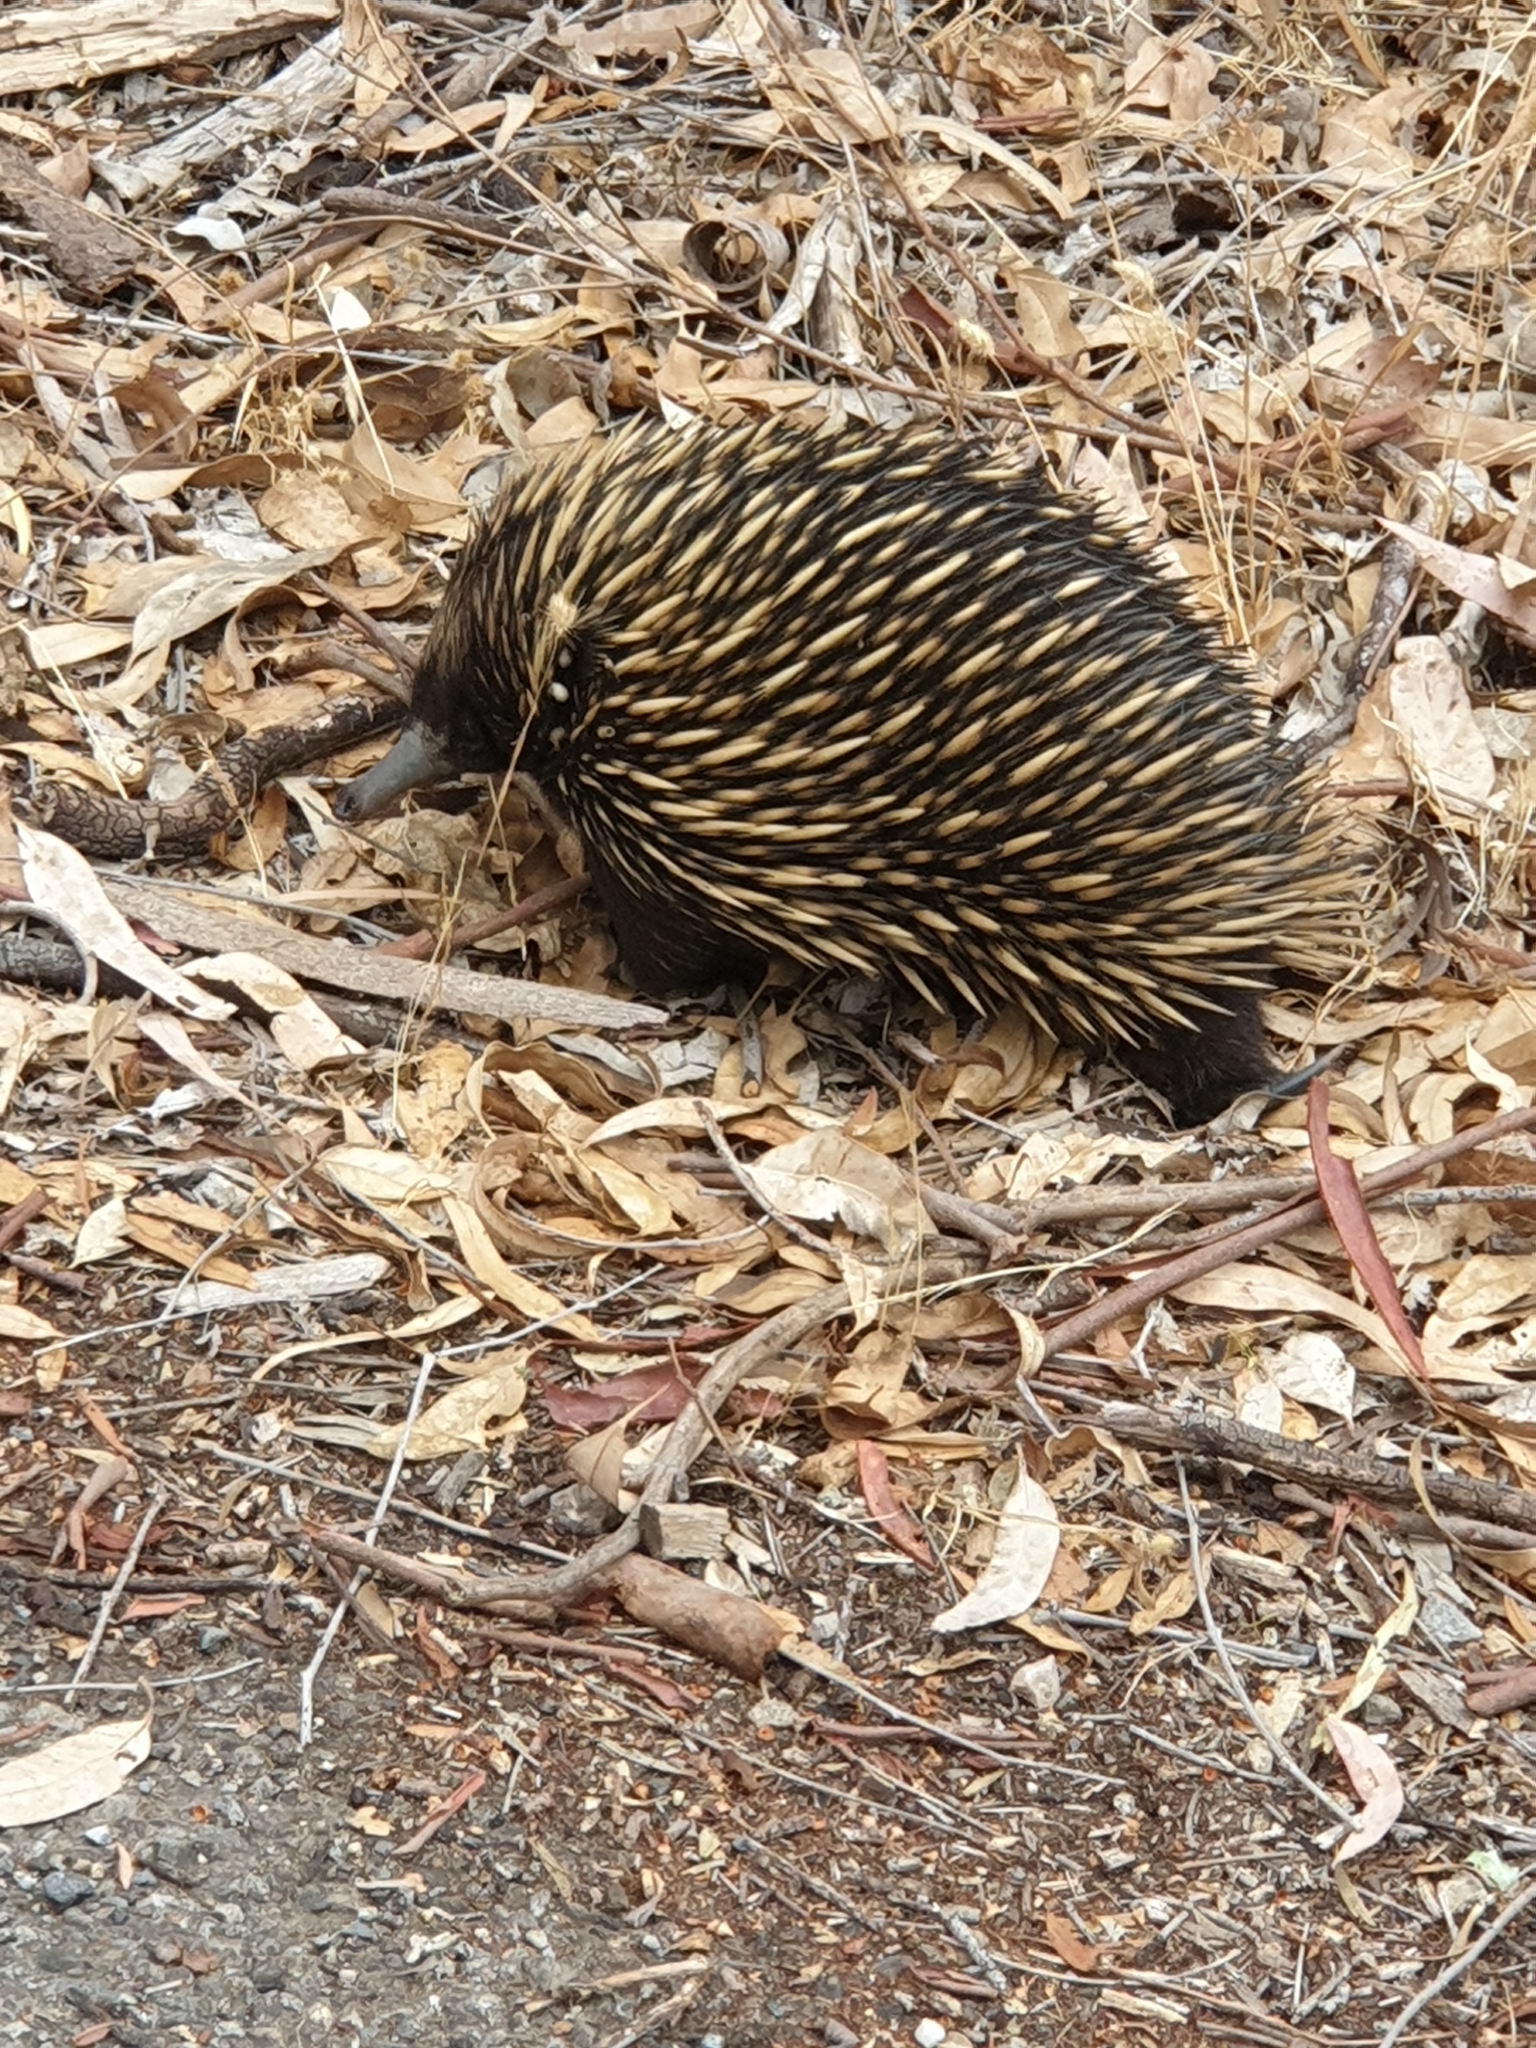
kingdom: Animalia
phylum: Chordata
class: Mammalia
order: Monotremata
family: Tachyglossidae
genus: Tachyglossus
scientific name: Tachyglossus aculeatus
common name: Short-beaked echidna
